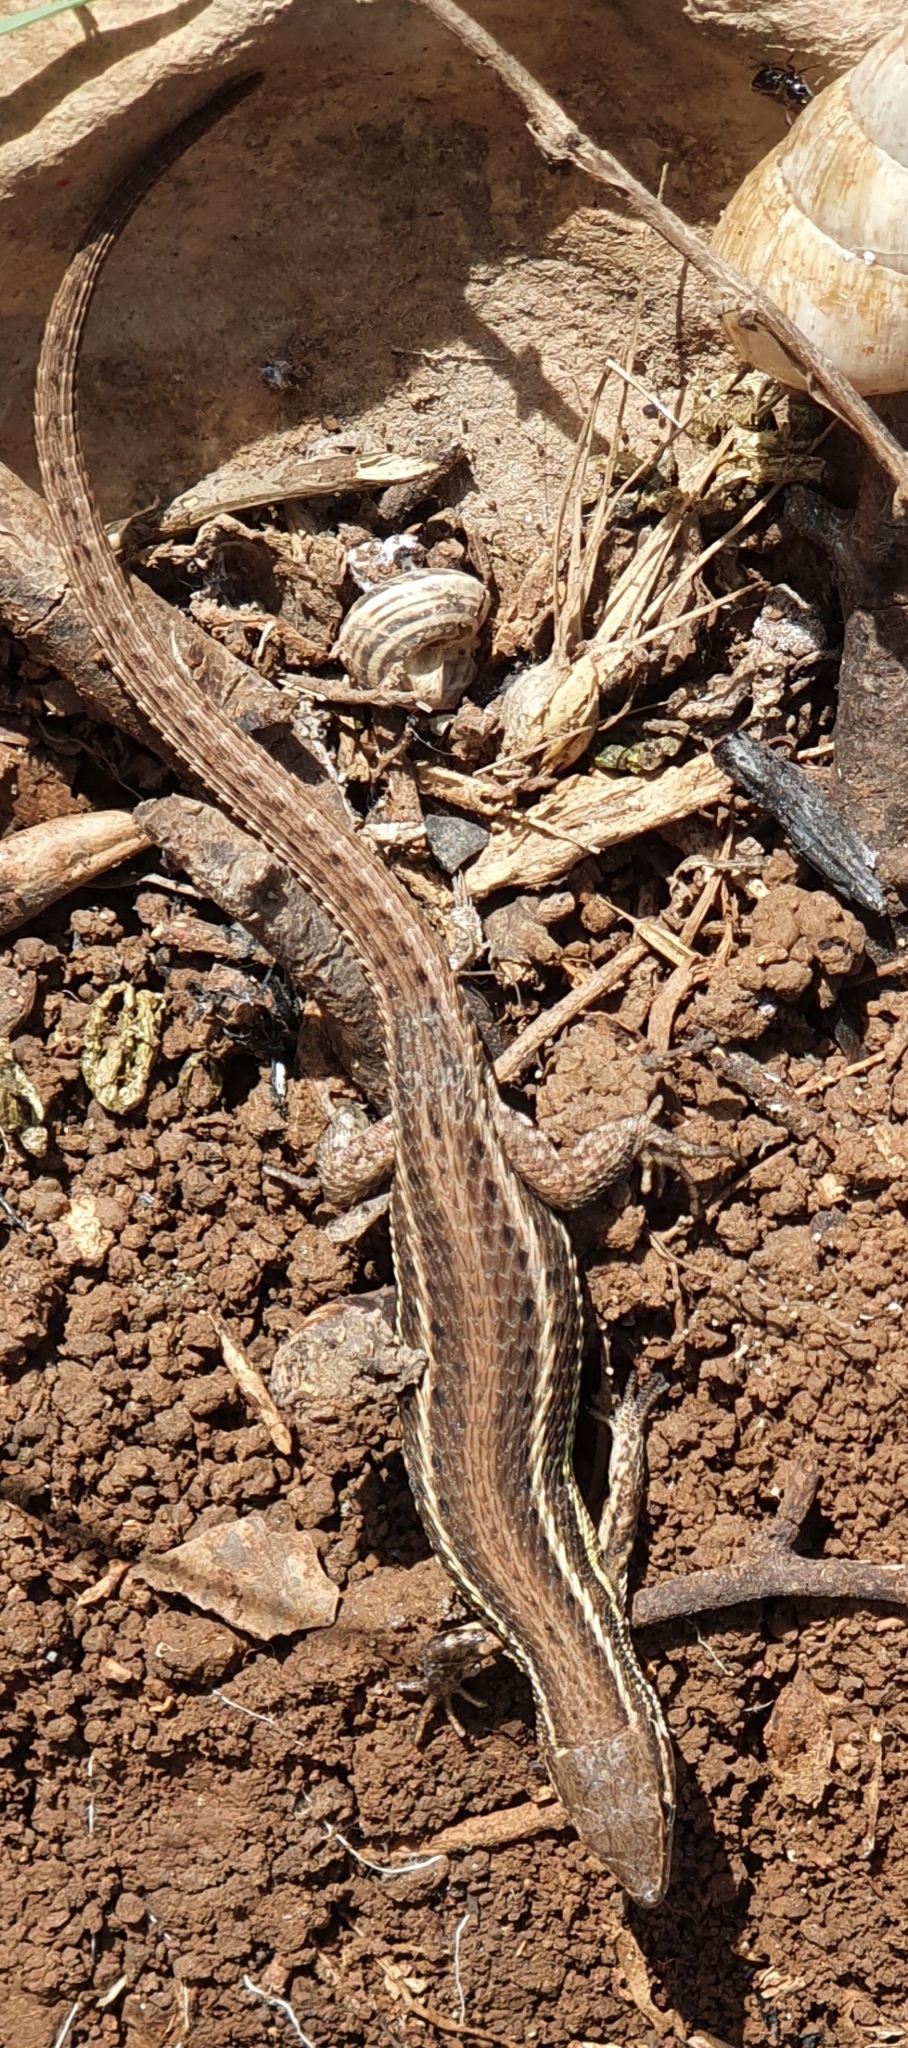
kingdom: Animalia
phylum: Chordata
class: Squamata
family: Lacertidae
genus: Psammodromus
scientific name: Psammodromus algirus
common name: Algerian psammodromus
